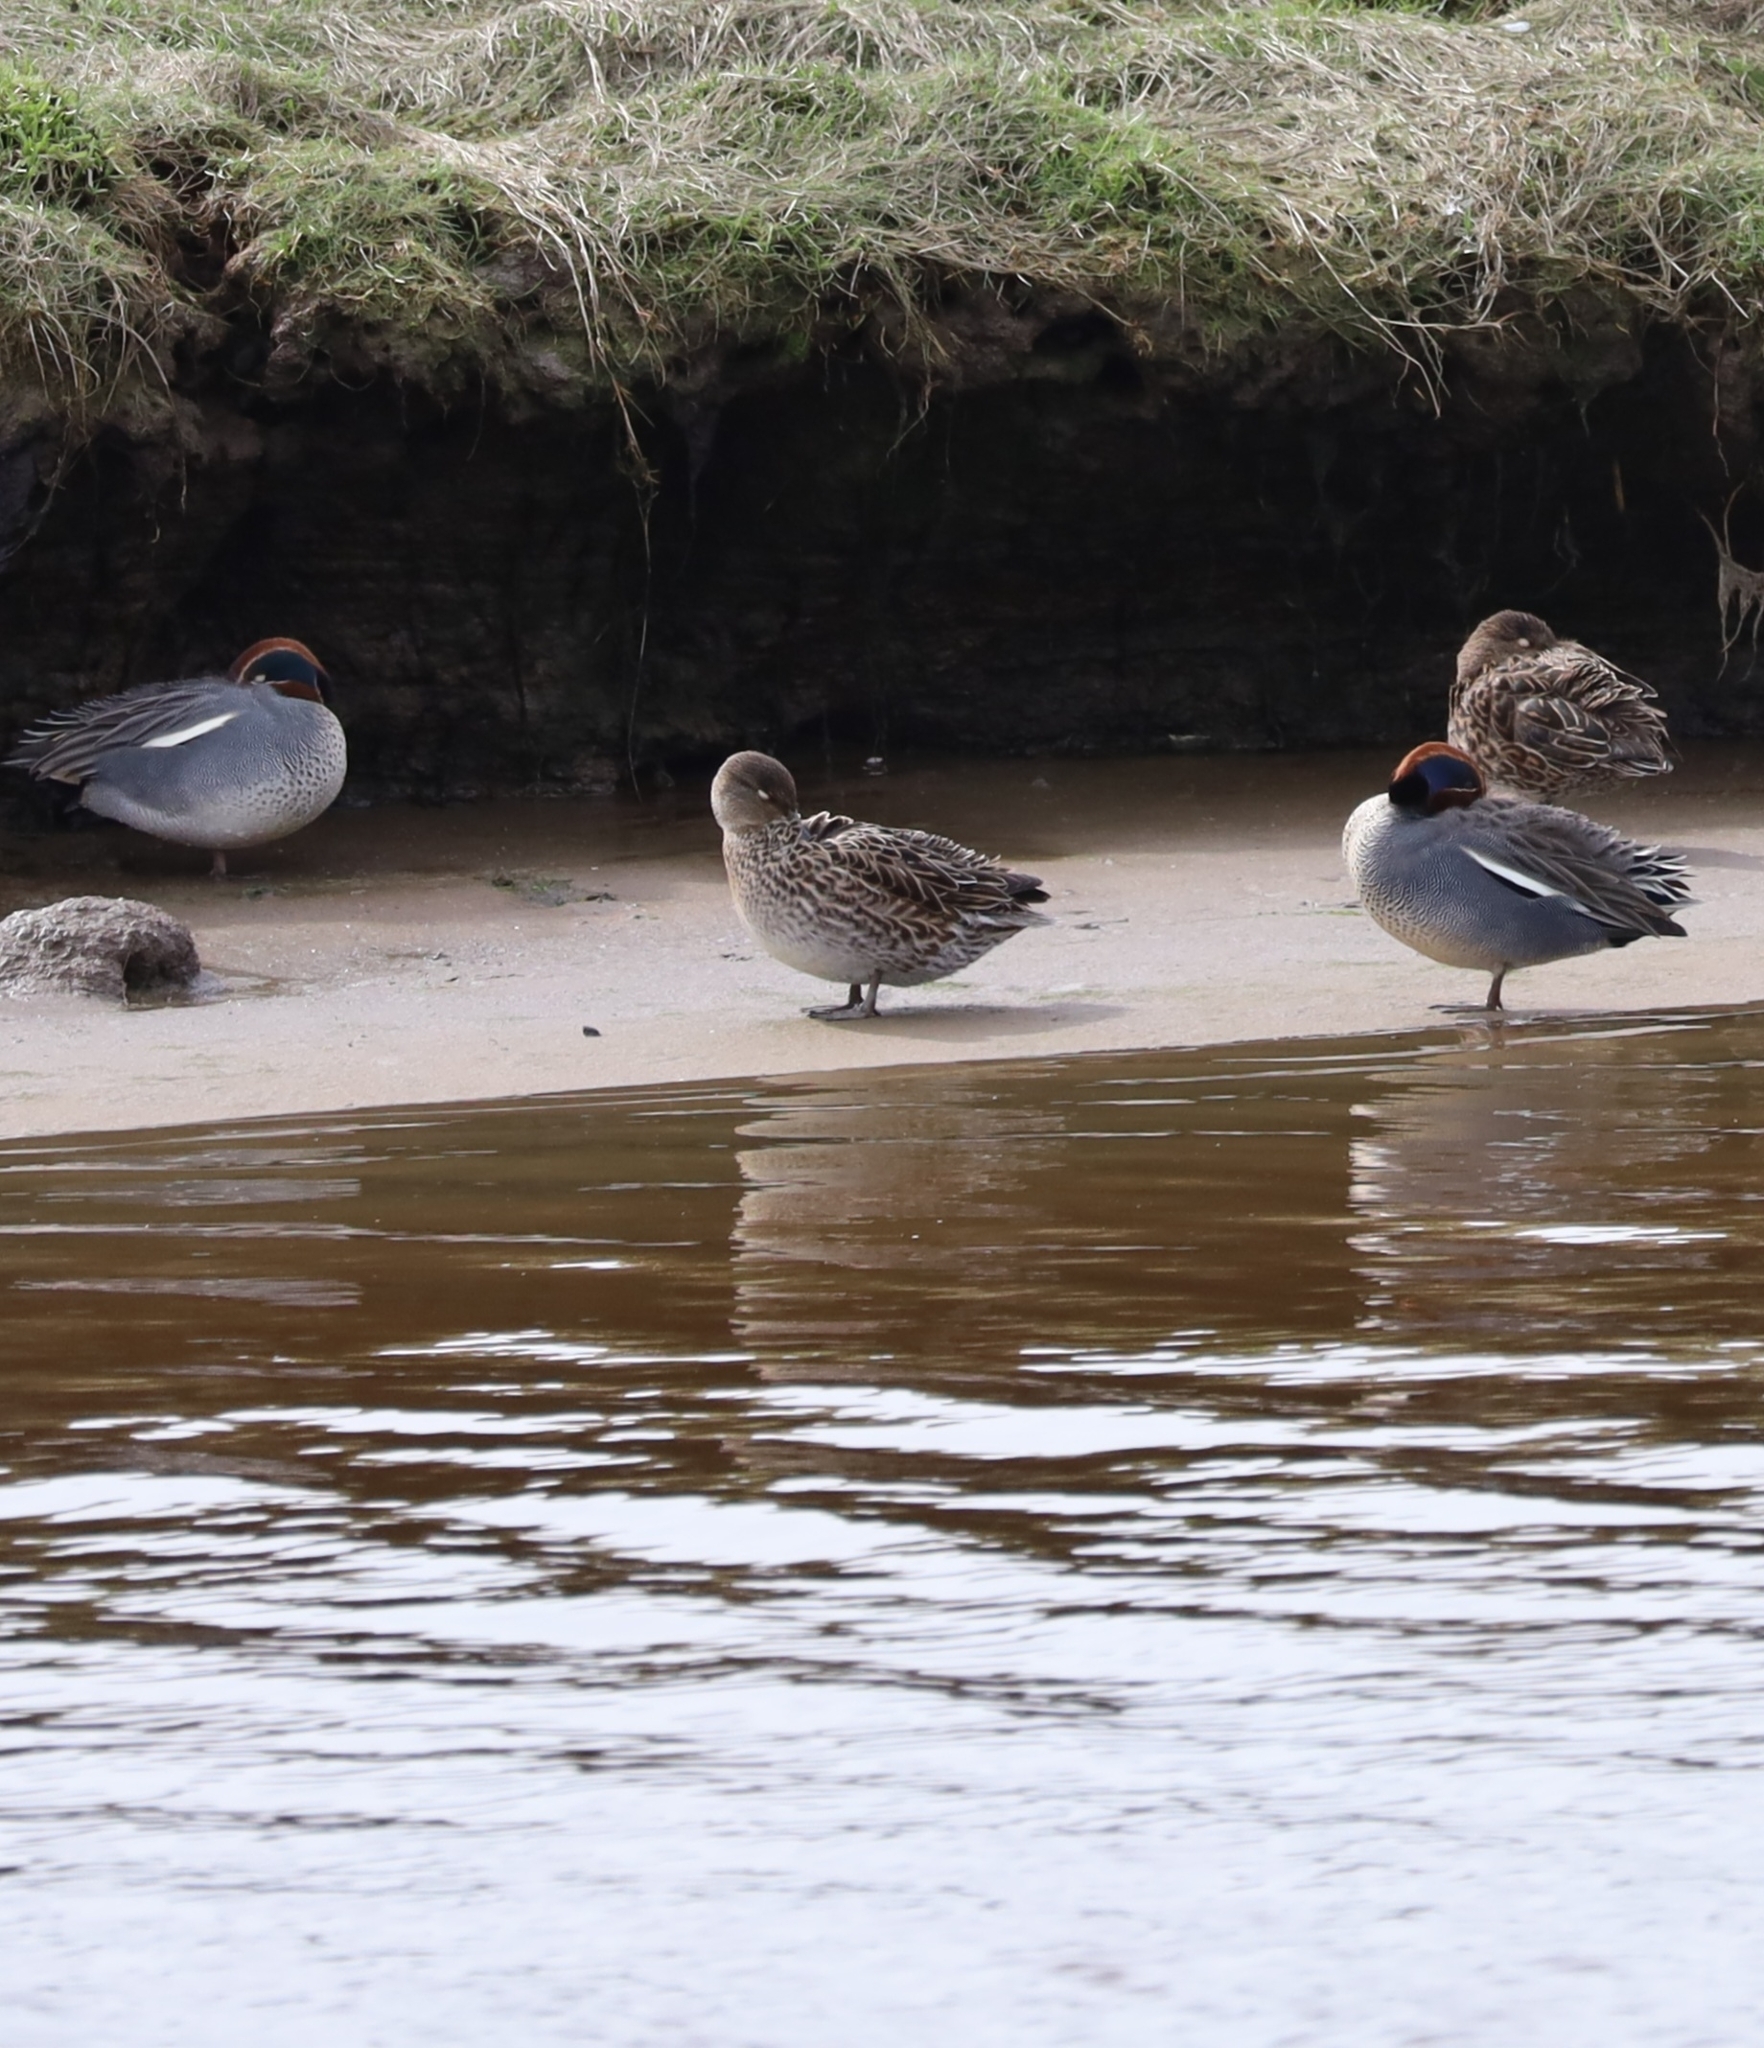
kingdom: Animalia
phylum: Chordata
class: Aves
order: Anseriformes
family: Anatidae
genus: Anas
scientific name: Anas crecca
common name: Eurasian teal
